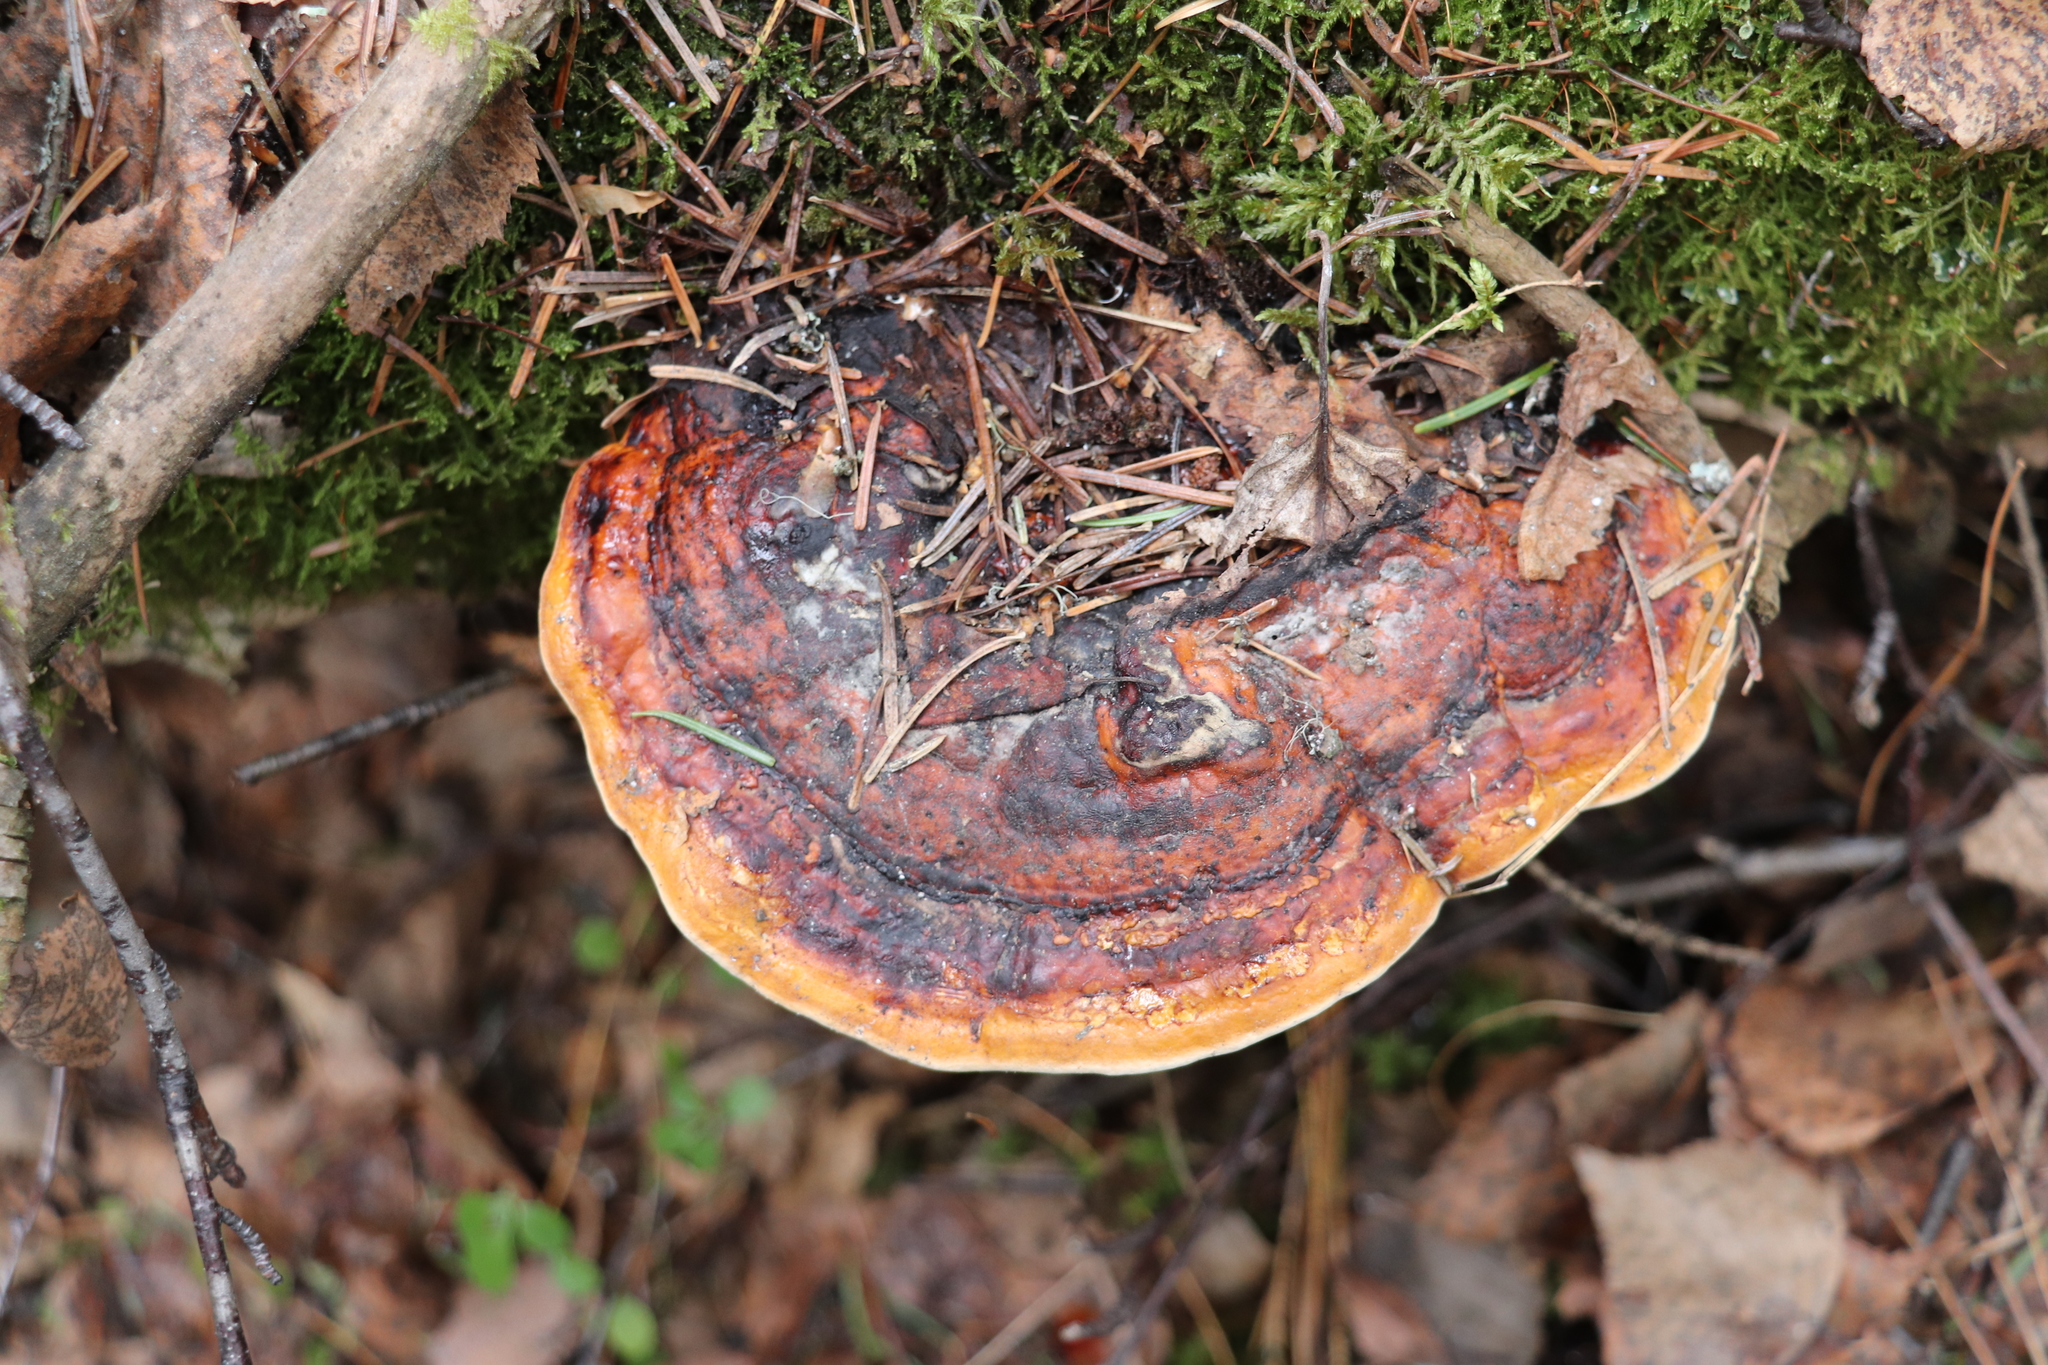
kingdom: Fungi
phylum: Basidiomycota
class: Agaricomycetes
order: Polyporales
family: Fomitopsidaceae
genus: Fomitopsis
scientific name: Fomitopsis pinicola
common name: Red-belted bracket
